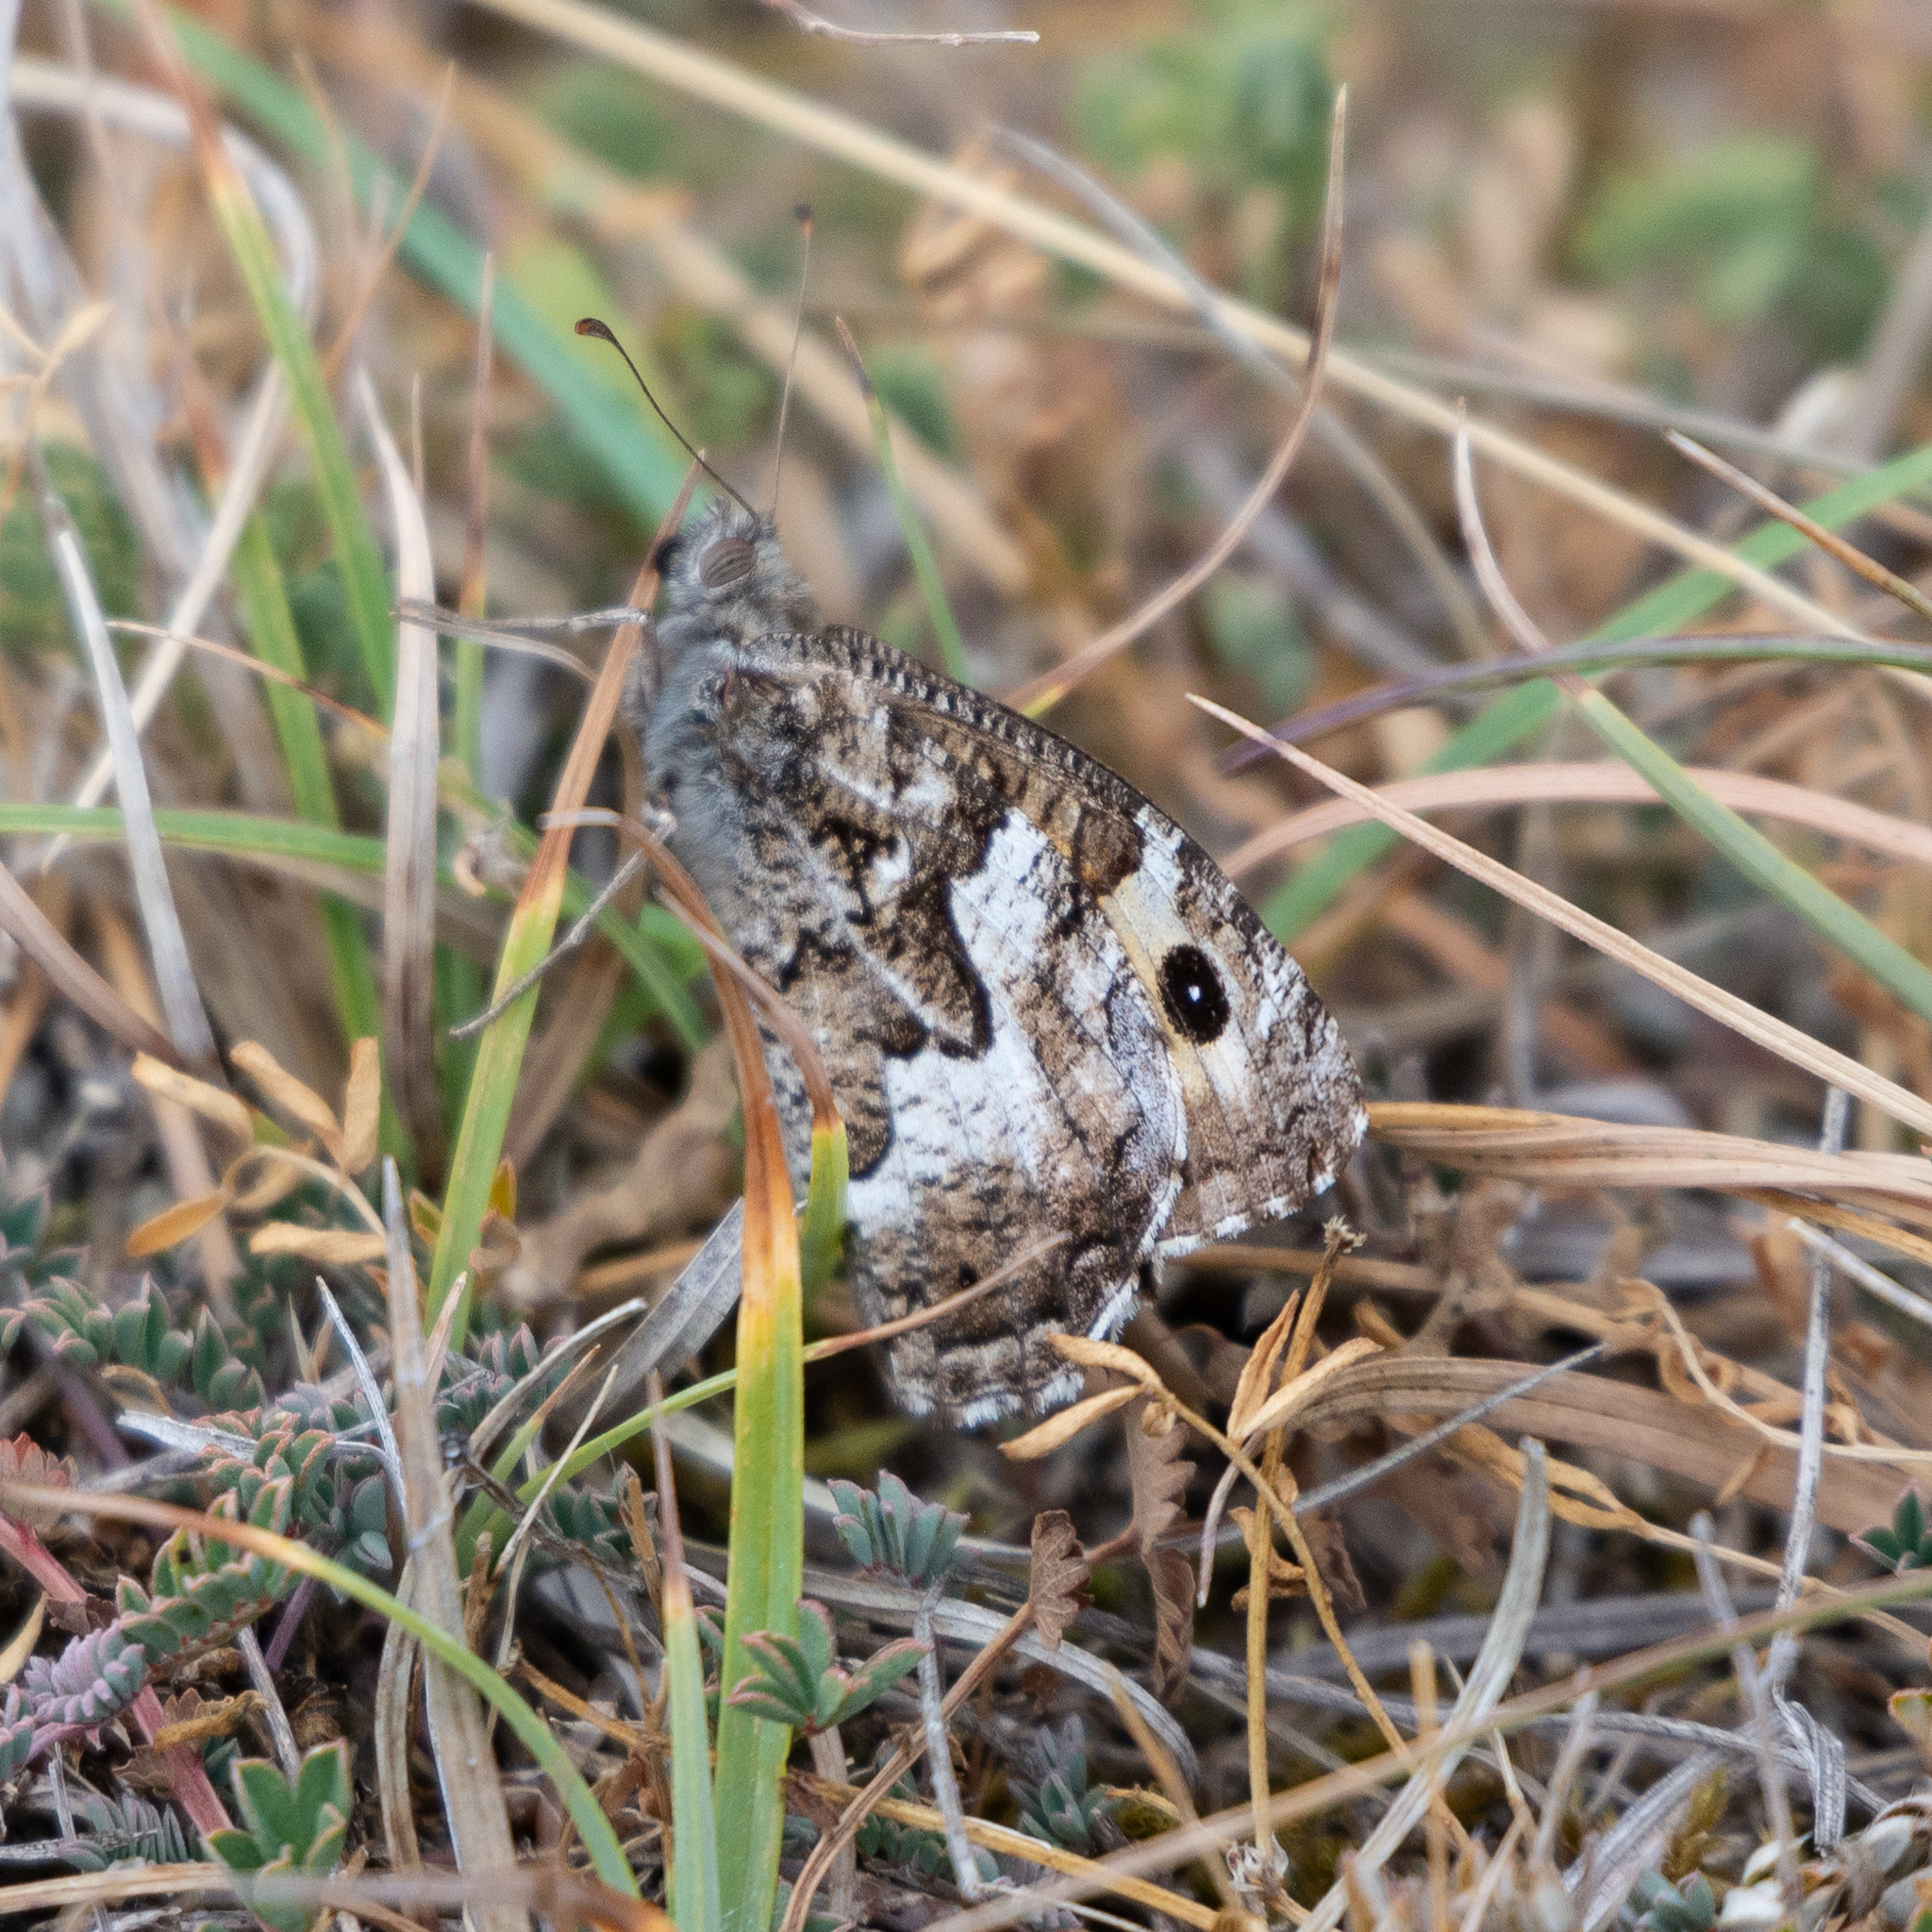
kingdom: Animalia
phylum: Arthropoda
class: Insecta
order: Lepidoptera
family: Nymphalidae
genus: Hipparchia
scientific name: Hipparchia semele
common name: Grayling
